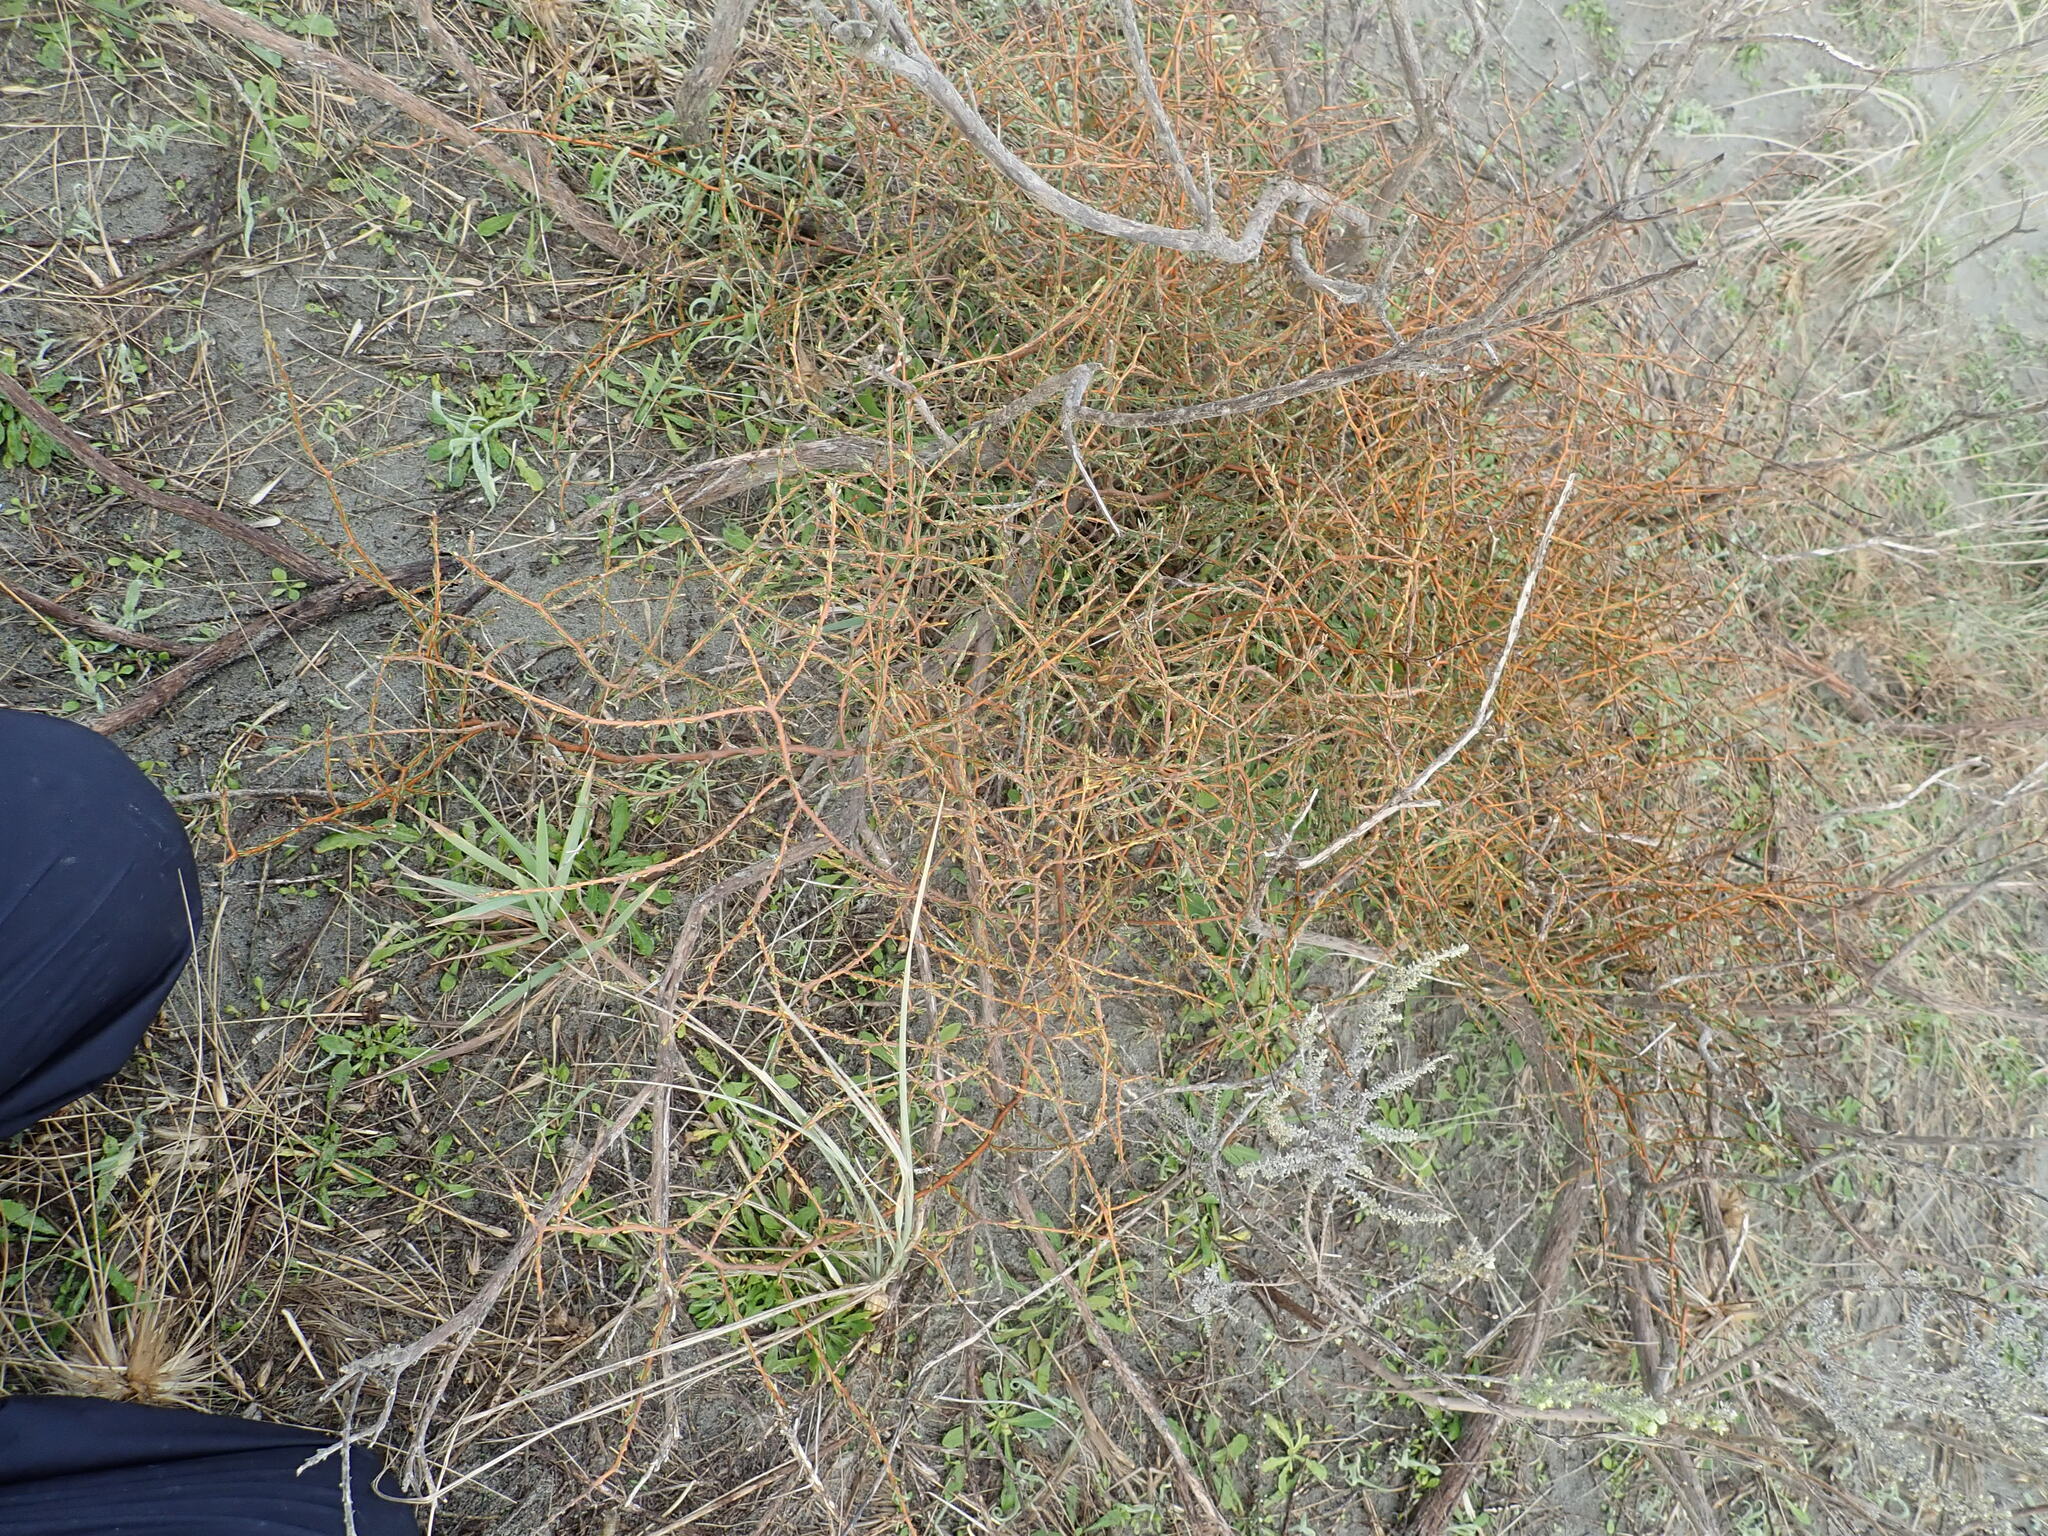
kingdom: Plantae
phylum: Tracheophyta
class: Magnoliopsida
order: Gentianales
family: Rubiaceae
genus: Coprosma
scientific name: Coprosma acerosa
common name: Sand coprosma
